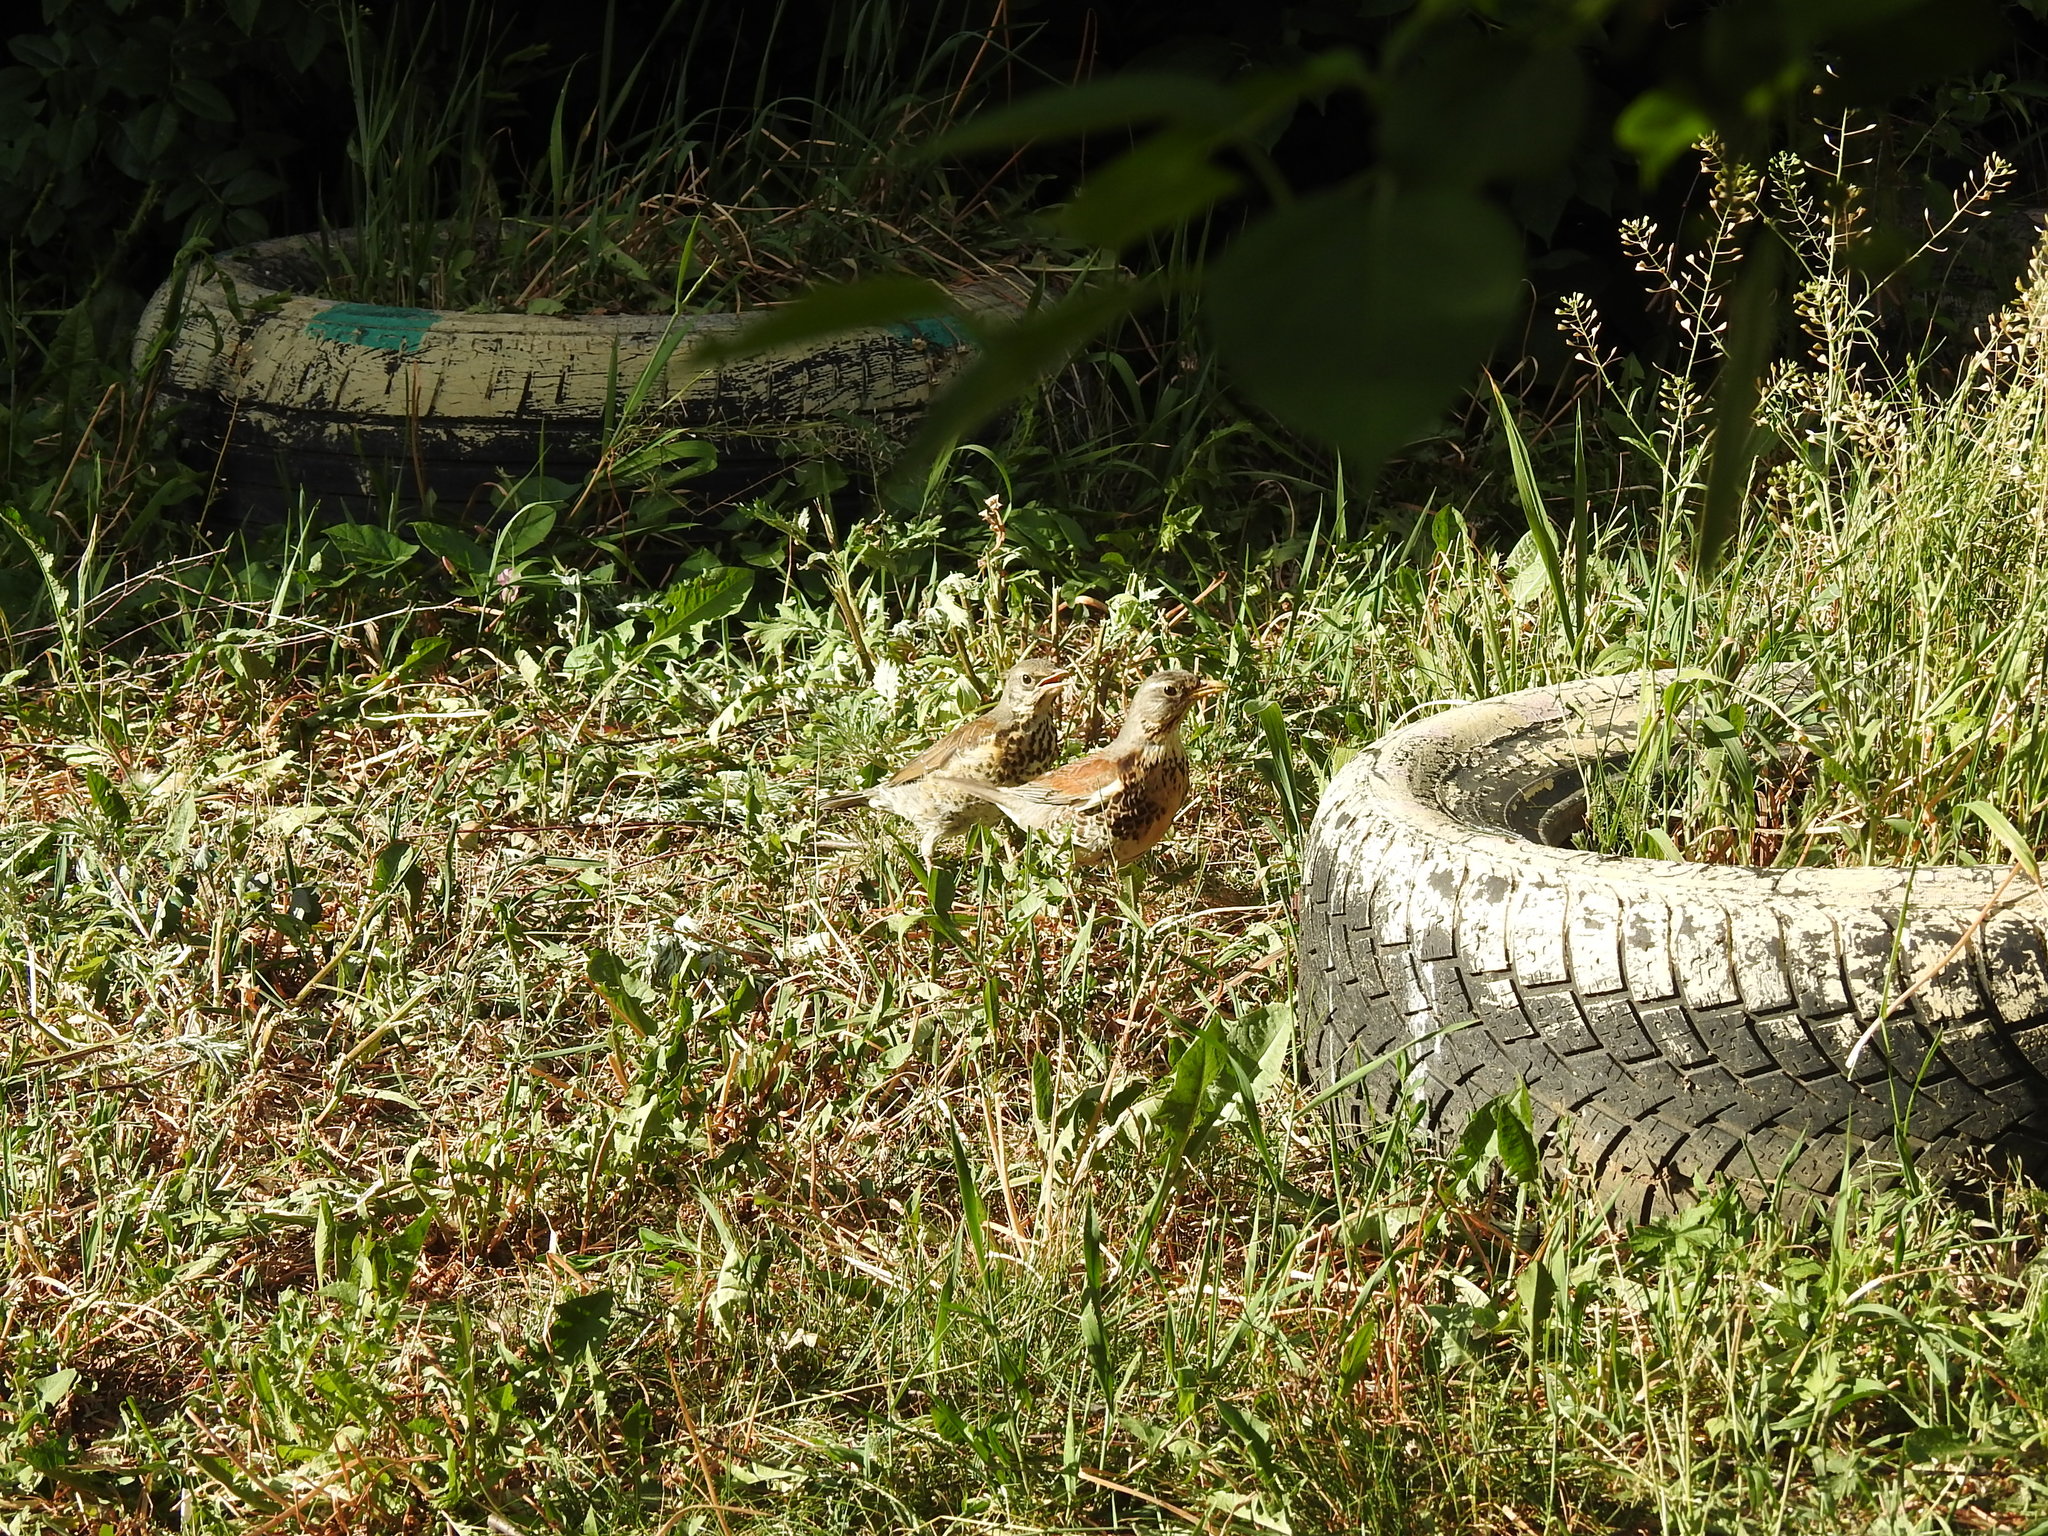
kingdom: Animalia
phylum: Chordata
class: Aves
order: Passeriformes
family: Turdidae
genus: Turdus
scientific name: Turdus pilaris
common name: Fieldfare
